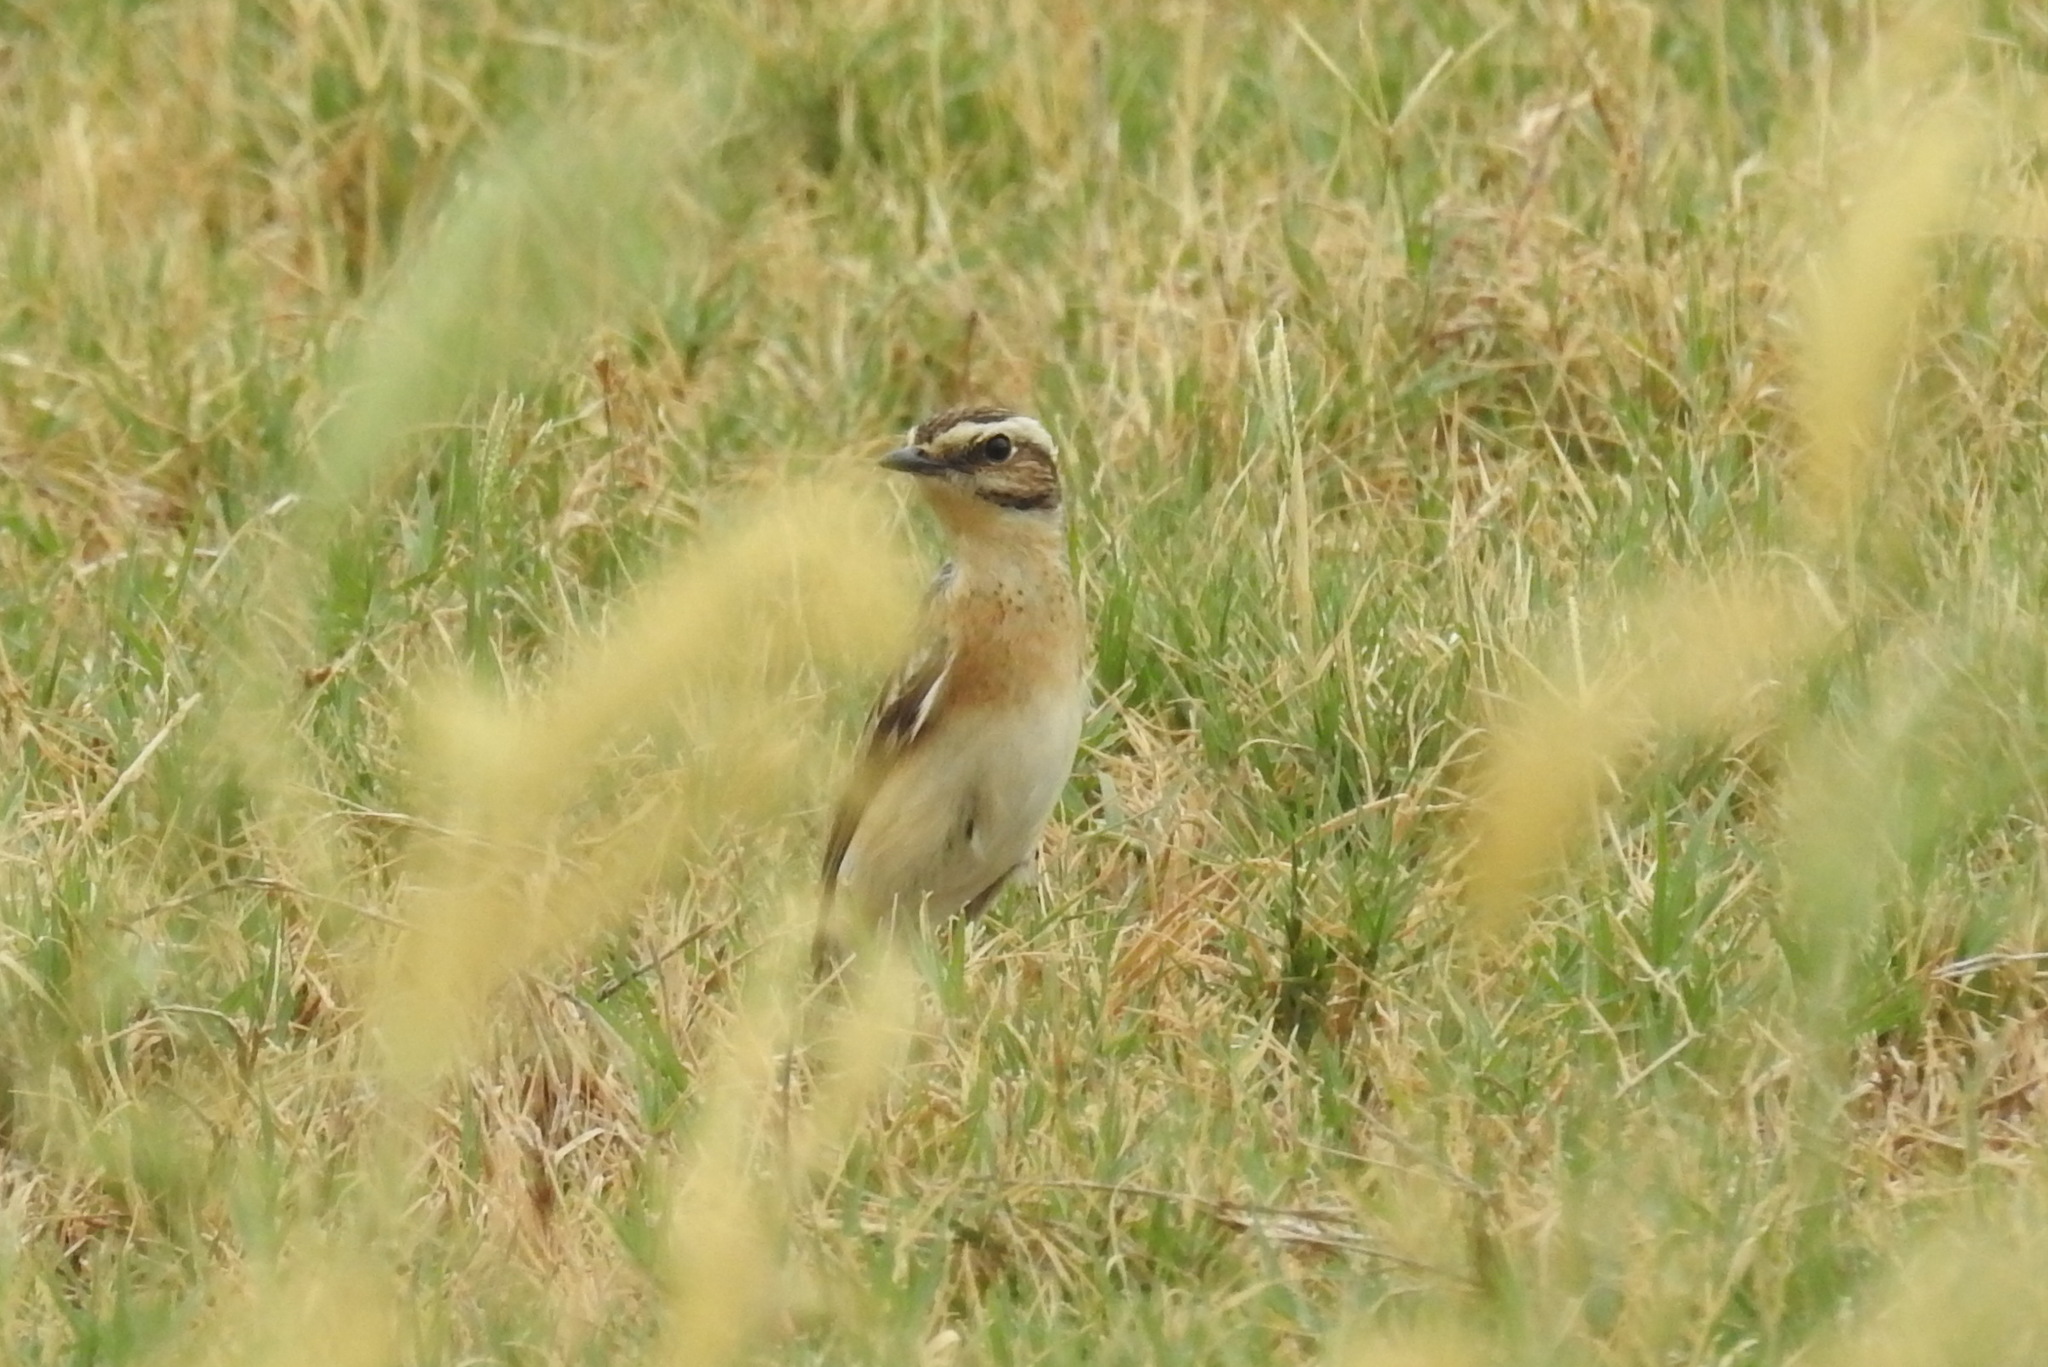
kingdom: Animalia
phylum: Chordata
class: Aves
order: Passeriformes
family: Muscicapidae
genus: Saxicola
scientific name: Saxicola rubetra
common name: Whinchat
